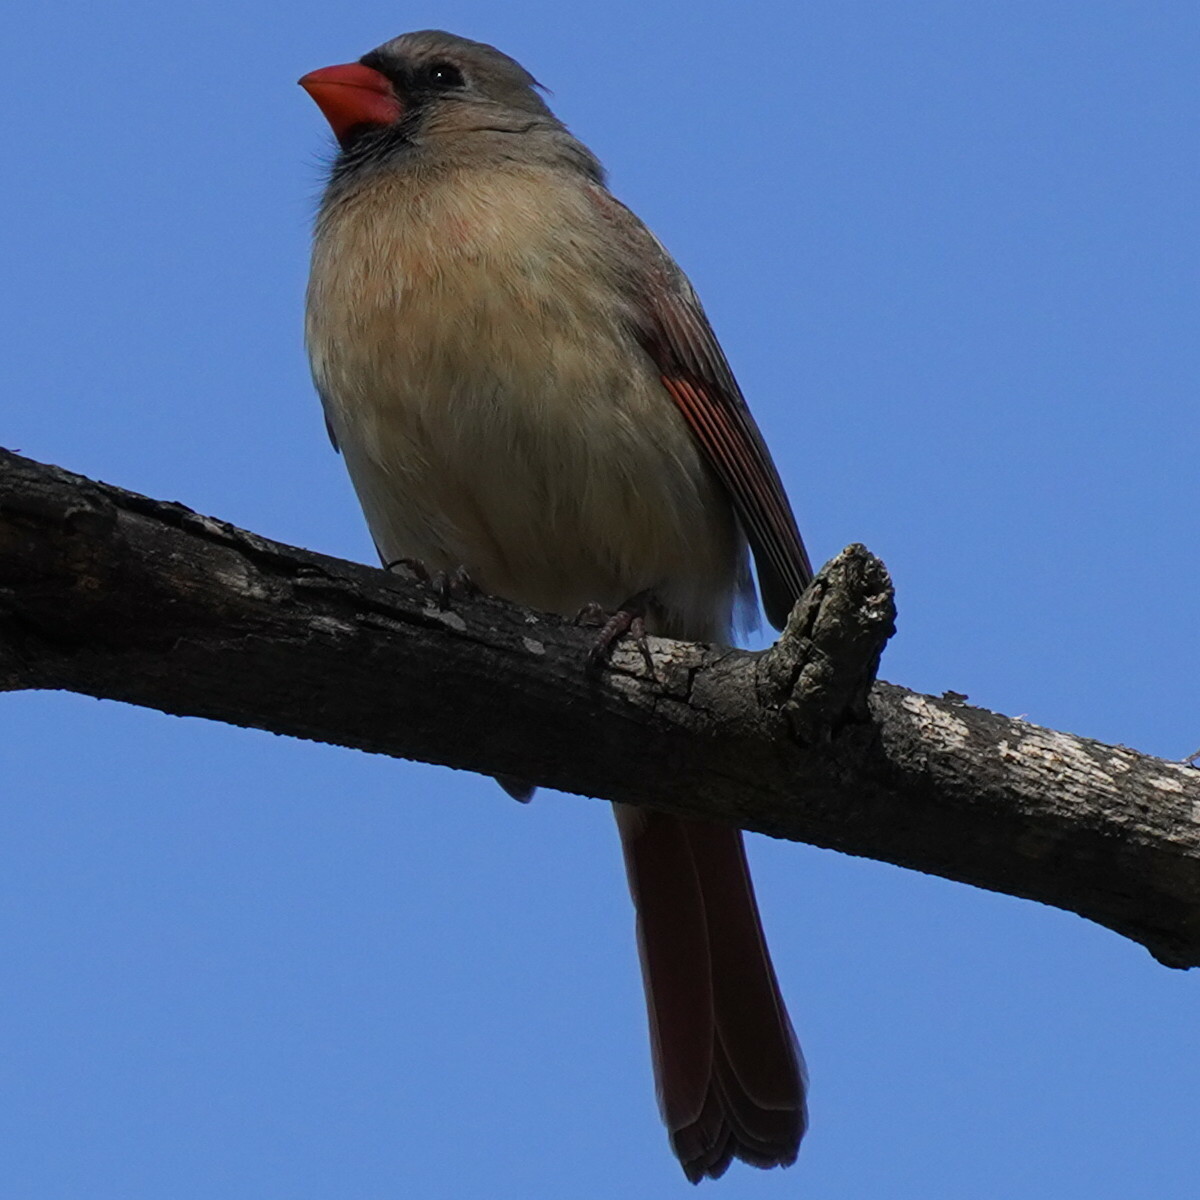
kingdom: Animalia
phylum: Chordata
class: Aves
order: Passeriformes
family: Cardinalidae
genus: Cardinalis
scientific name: Cardinalis cardinalis
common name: Northern cardinal
